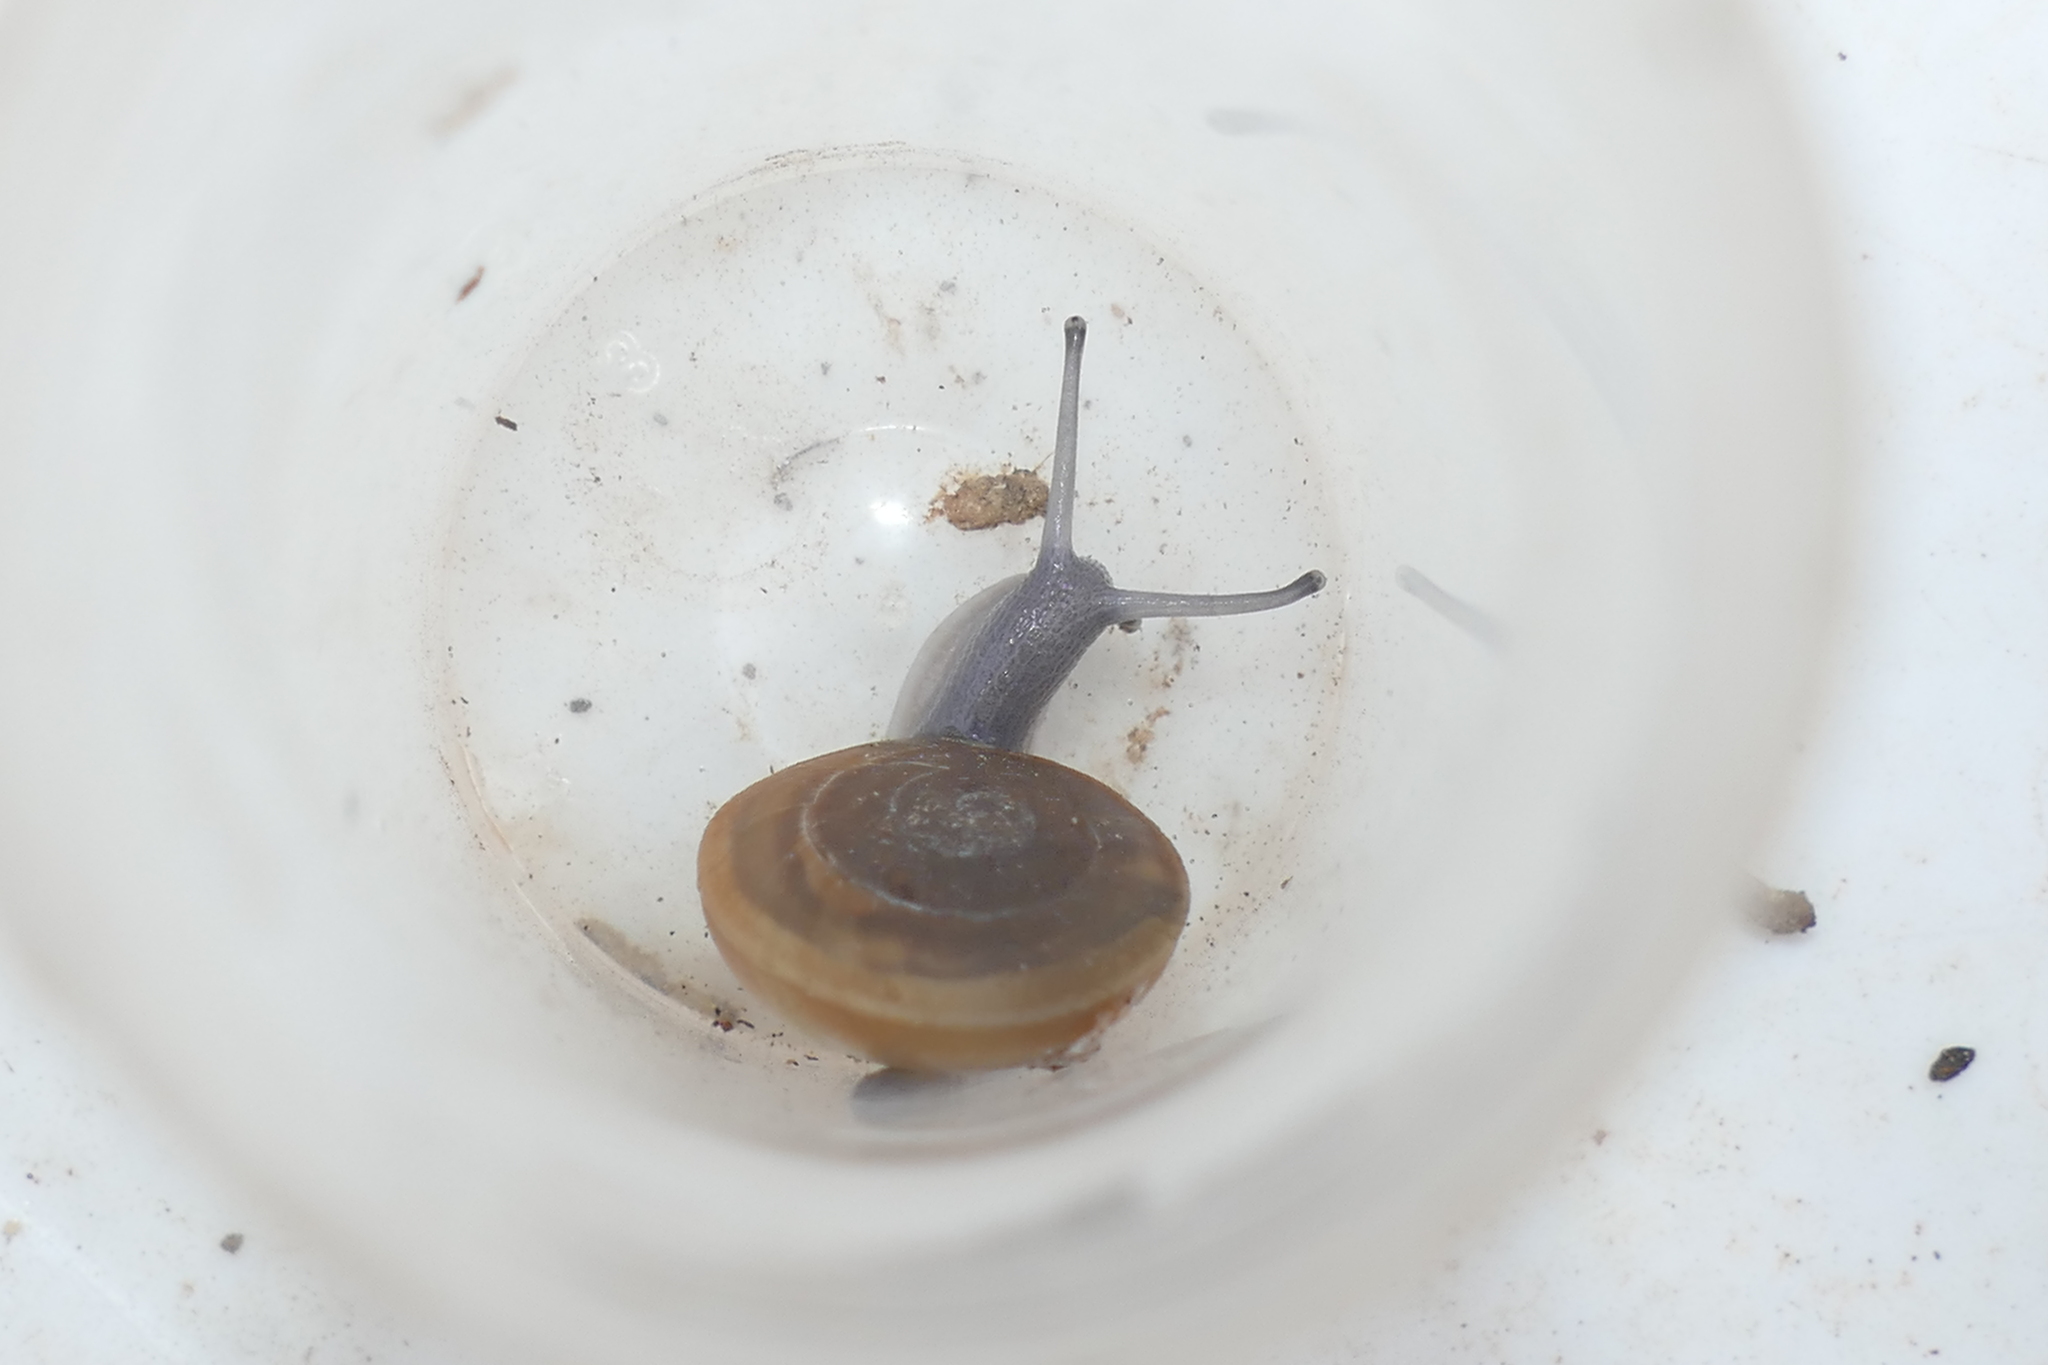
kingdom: Animalia
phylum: Mollusca
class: Gastropoda
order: Stylommatophora
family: Zonitidae
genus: Zonites
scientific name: Zonites algirus
